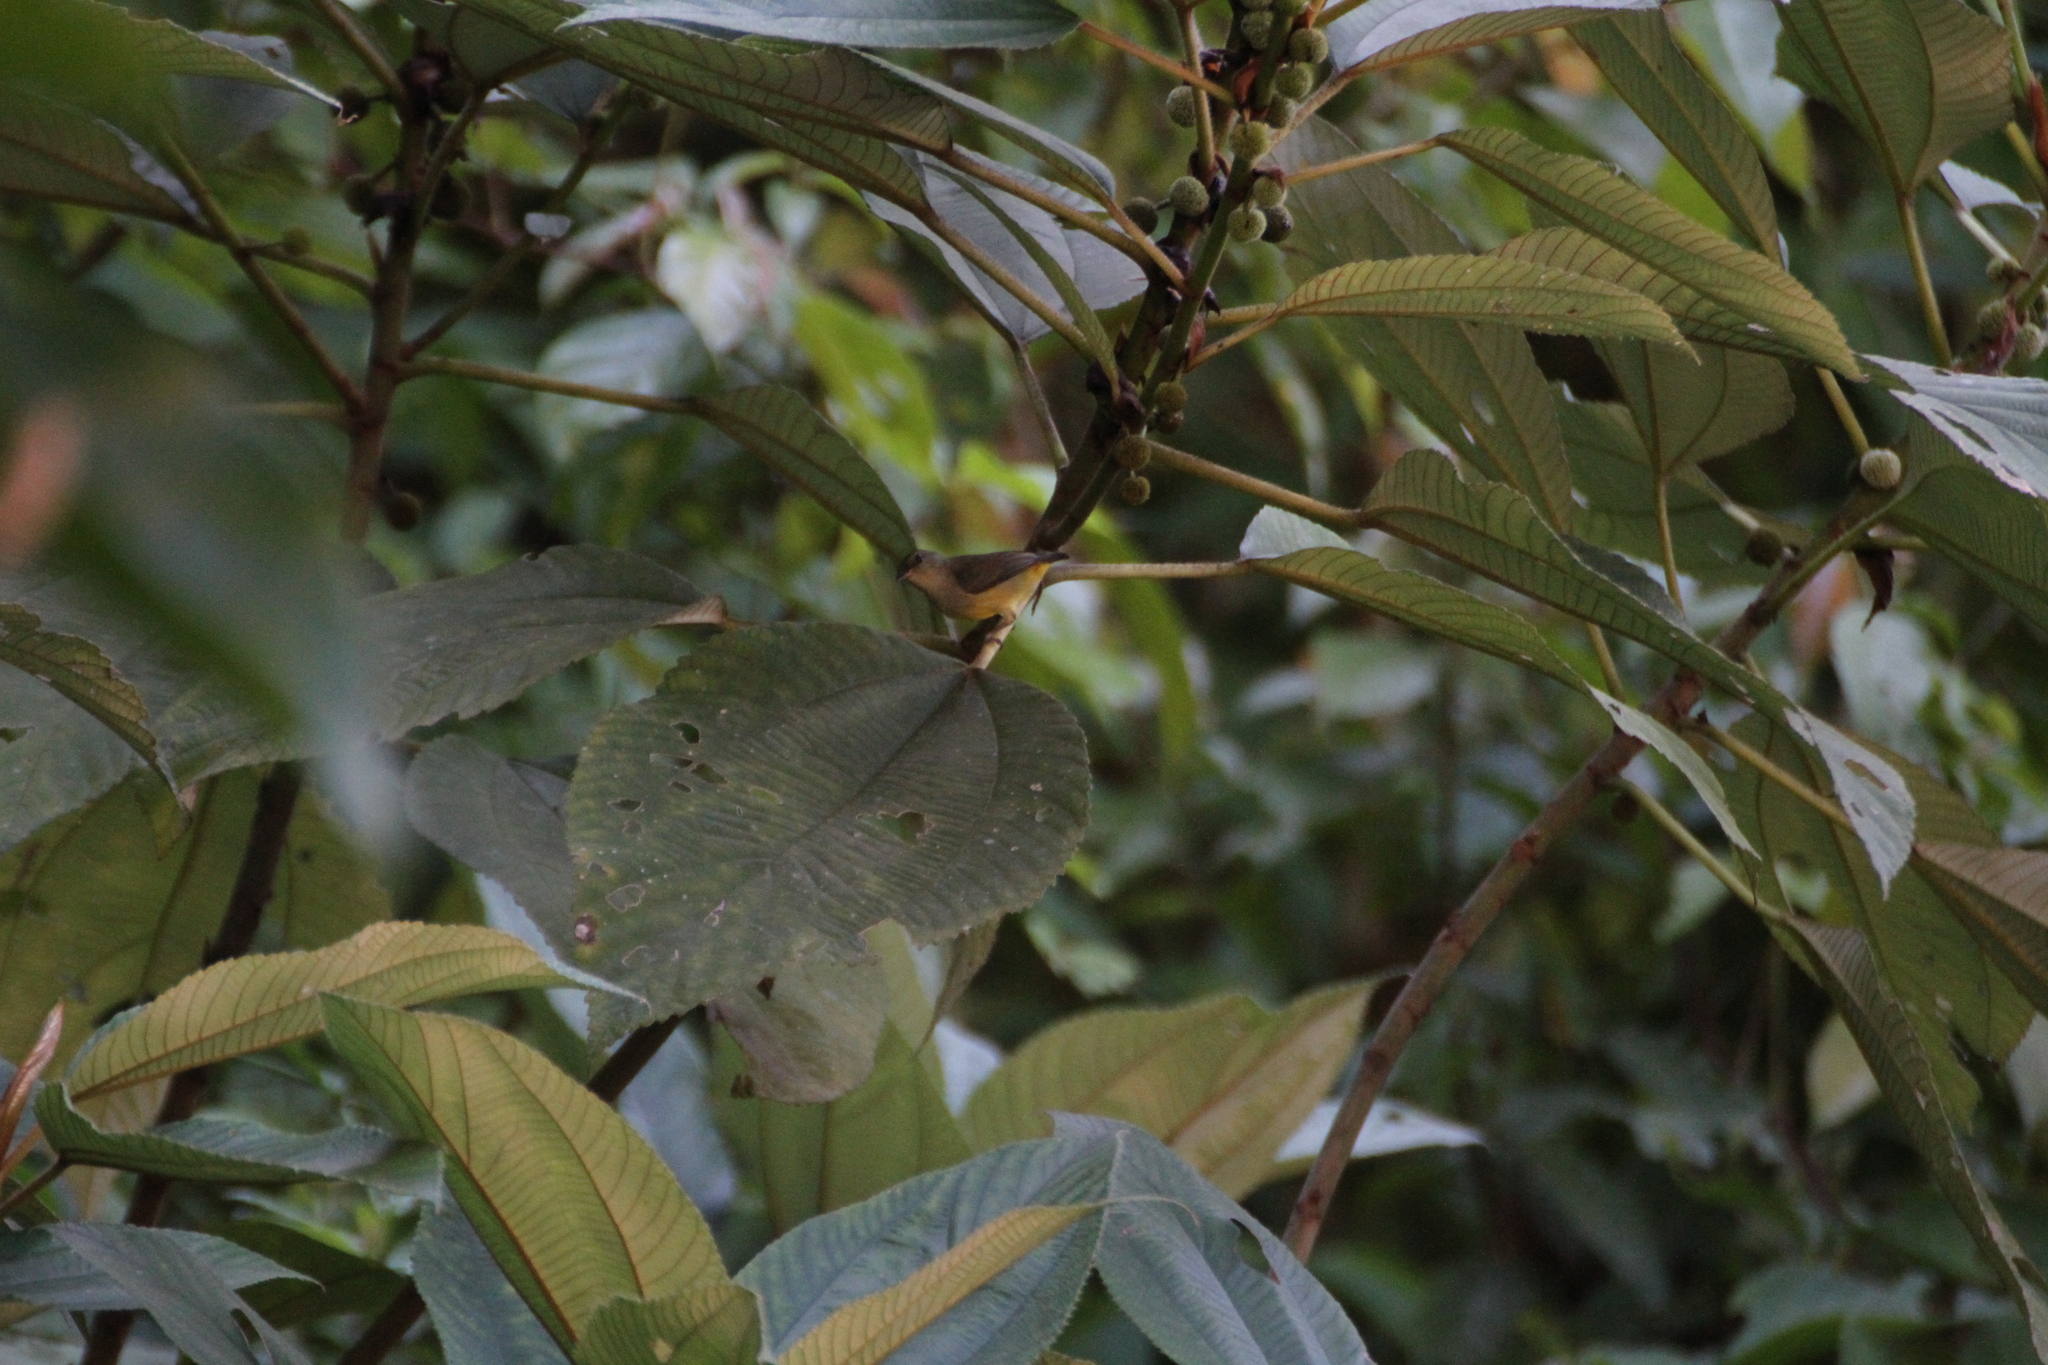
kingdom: Animalia
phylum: Chordata
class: Aves
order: Passeriformes
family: Dicaeidae
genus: Dicaeum
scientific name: Dicaeum trigonostigma
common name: Orange-bellied flowerpecker
